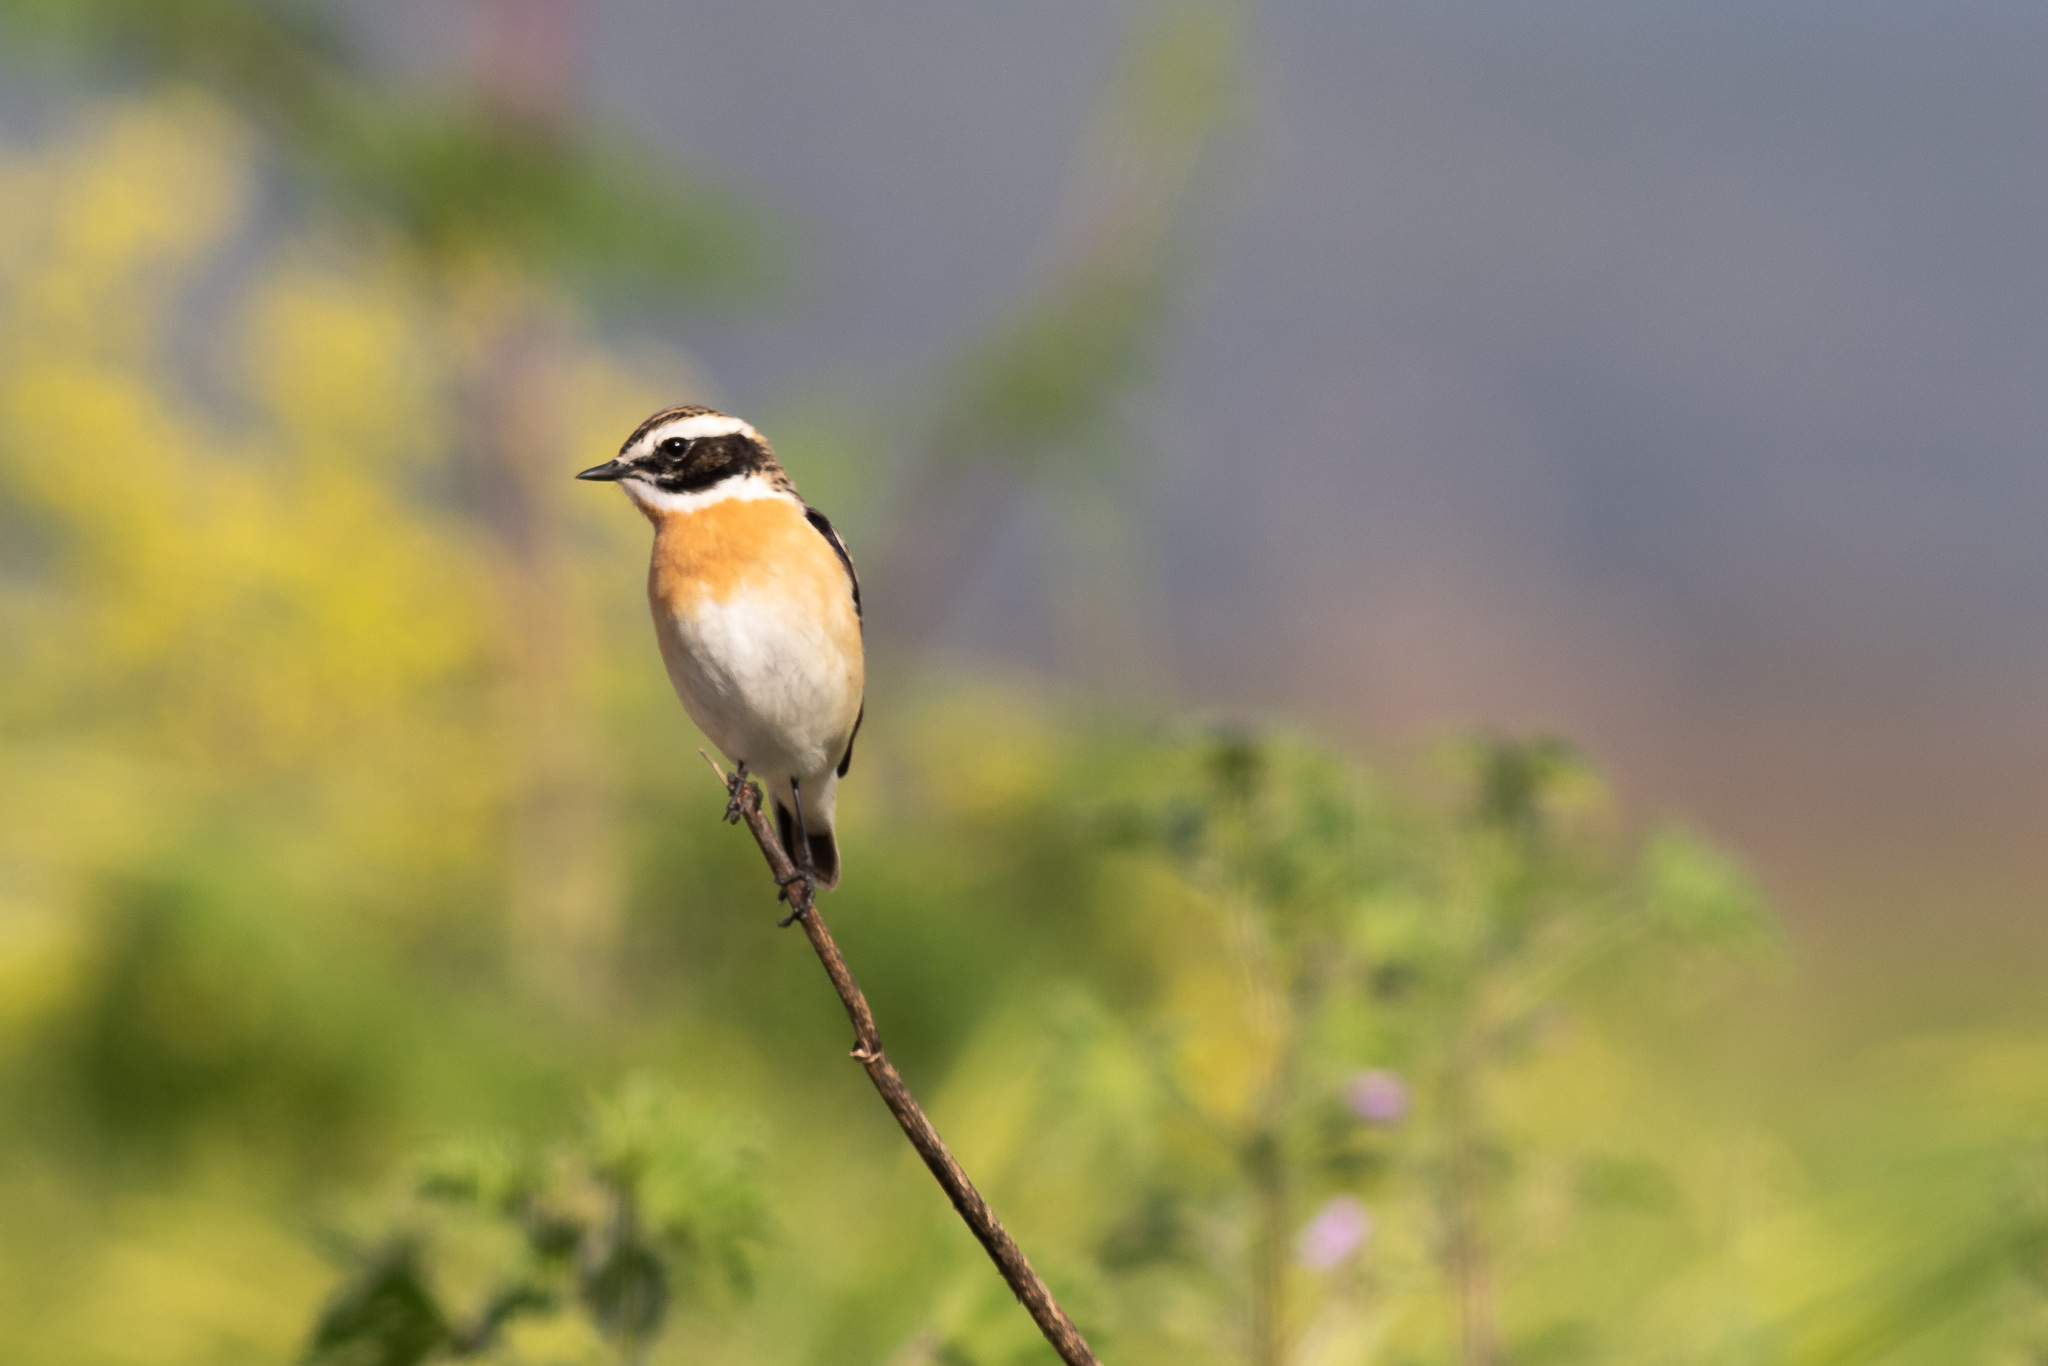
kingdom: Animalia
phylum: Chordata
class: Aves
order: Passeriformes
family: Muscicapidae
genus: Saxicola
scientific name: Saxicola rubetra
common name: Whinchat
